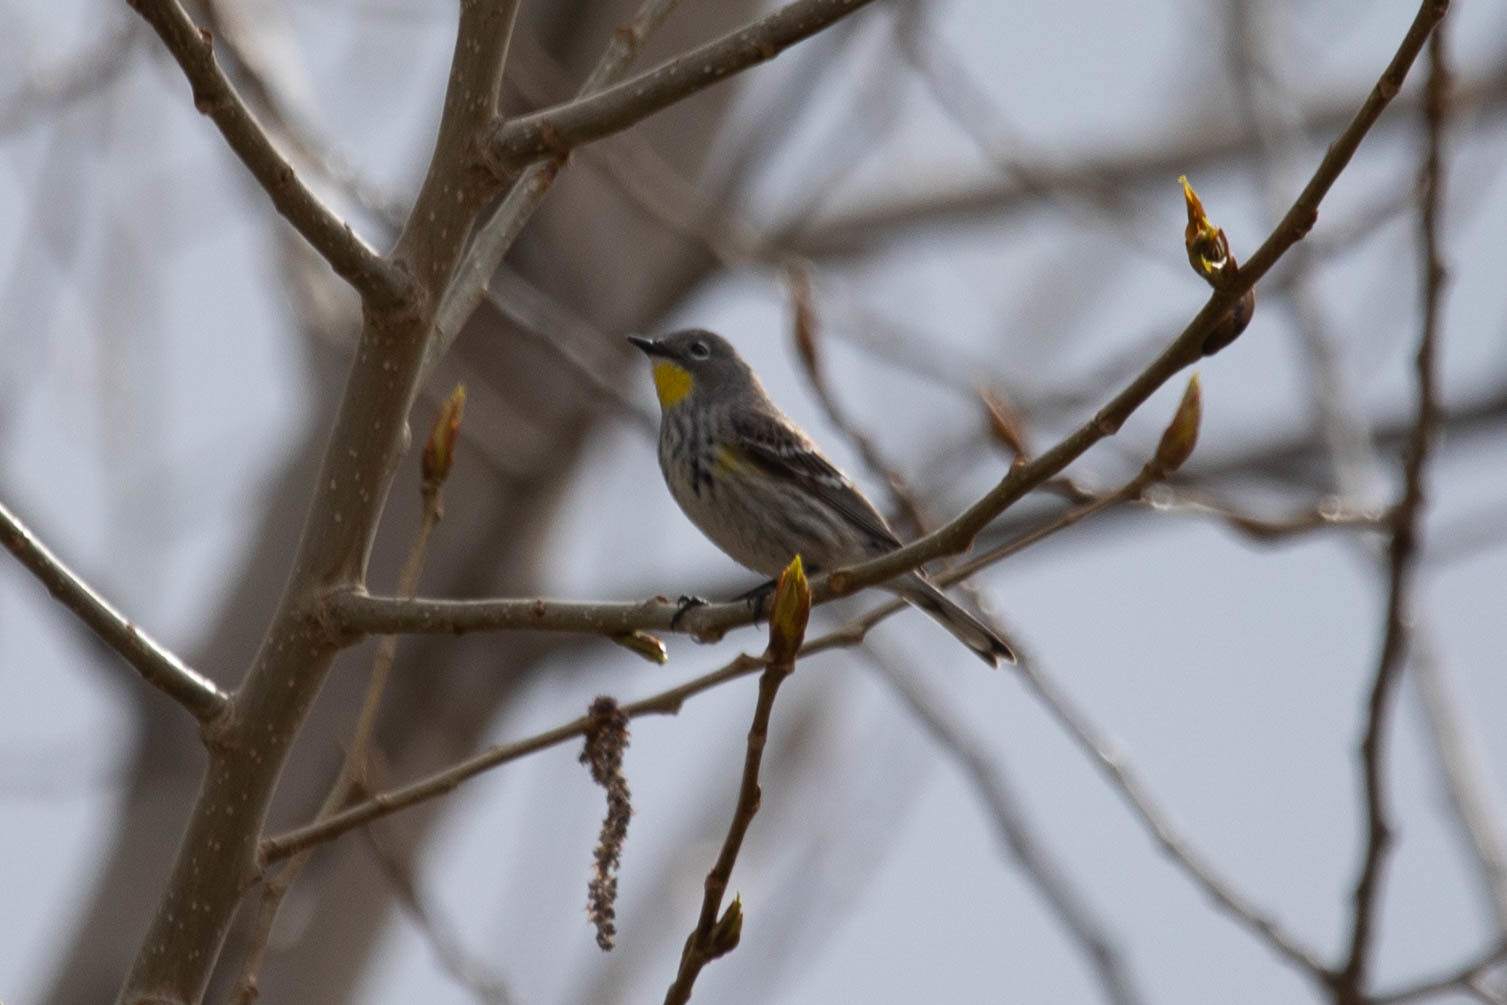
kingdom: Animalia
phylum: Chordata
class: Aves
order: Passeriformes
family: Parulidae
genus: Setophaga
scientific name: Setophaga auduboni
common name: Audubon's warbler
